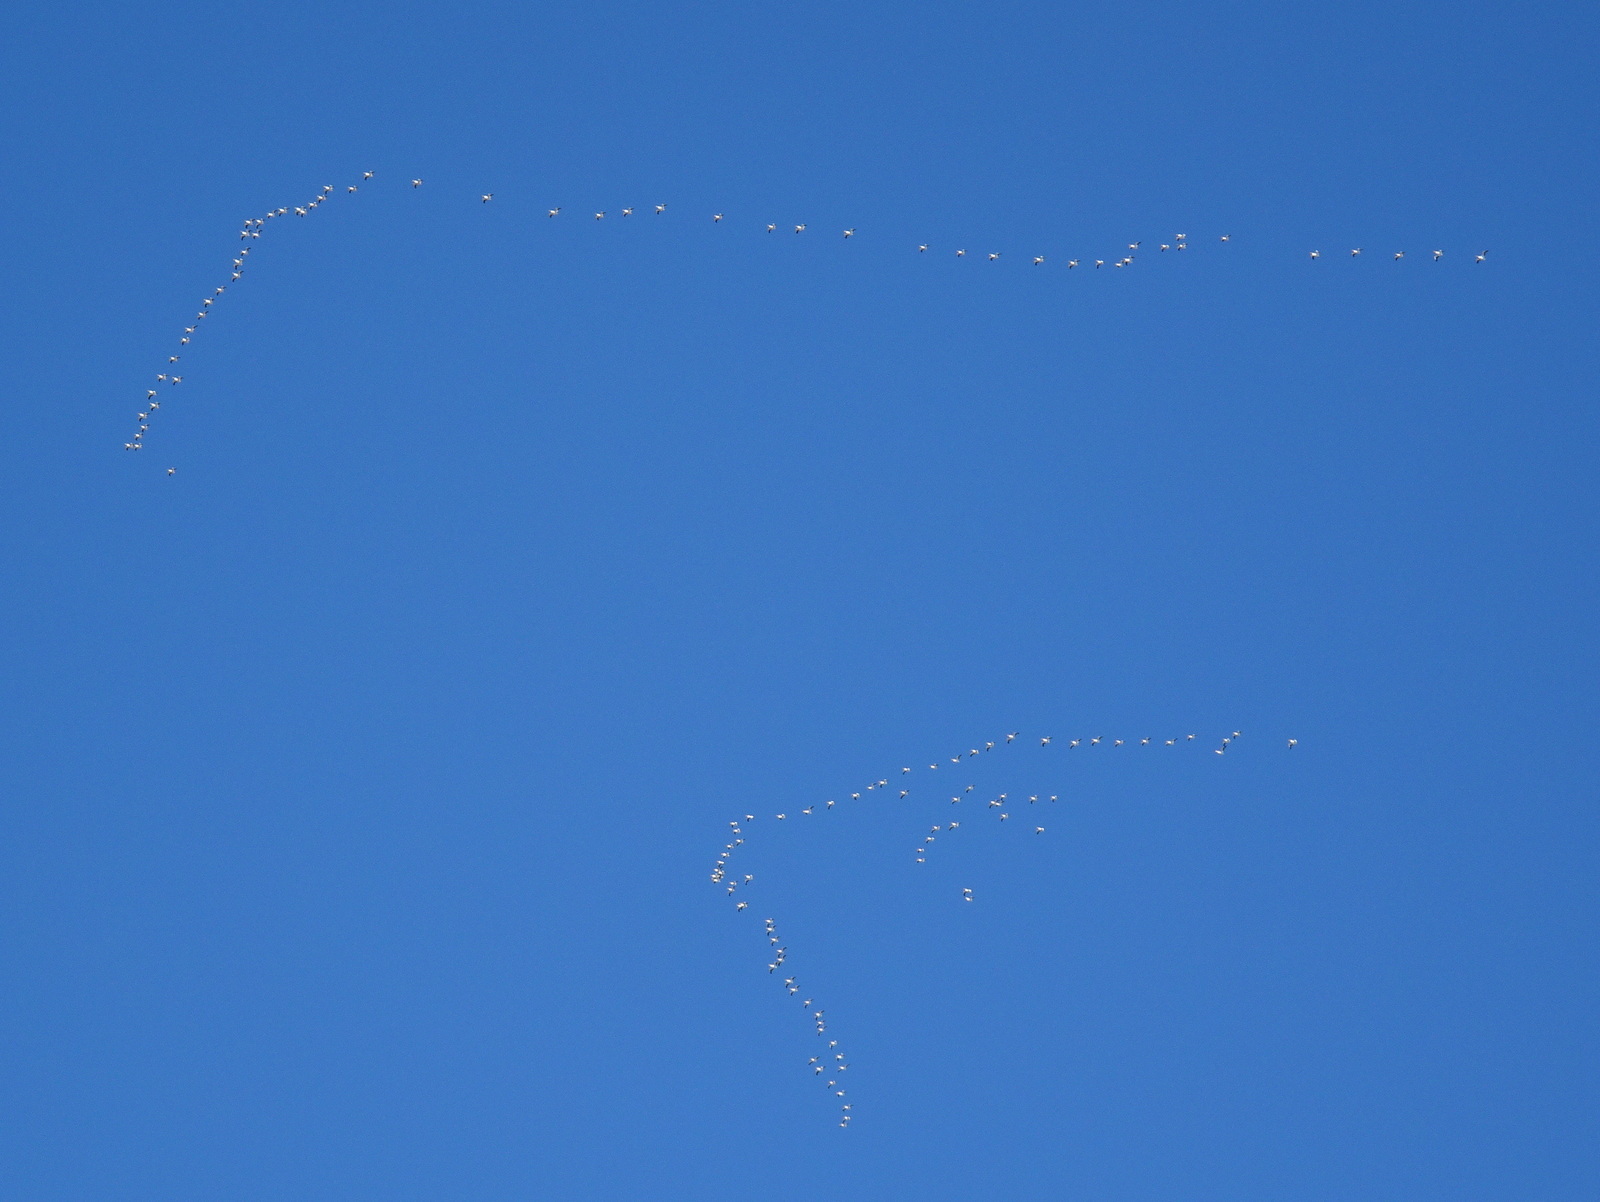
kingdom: Animalia
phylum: Chordata
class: Aves
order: Pelecaniformes
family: Pelecanidae
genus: Pelecanus
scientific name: Pelecanus erythrorhynchos
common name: American white pelican
